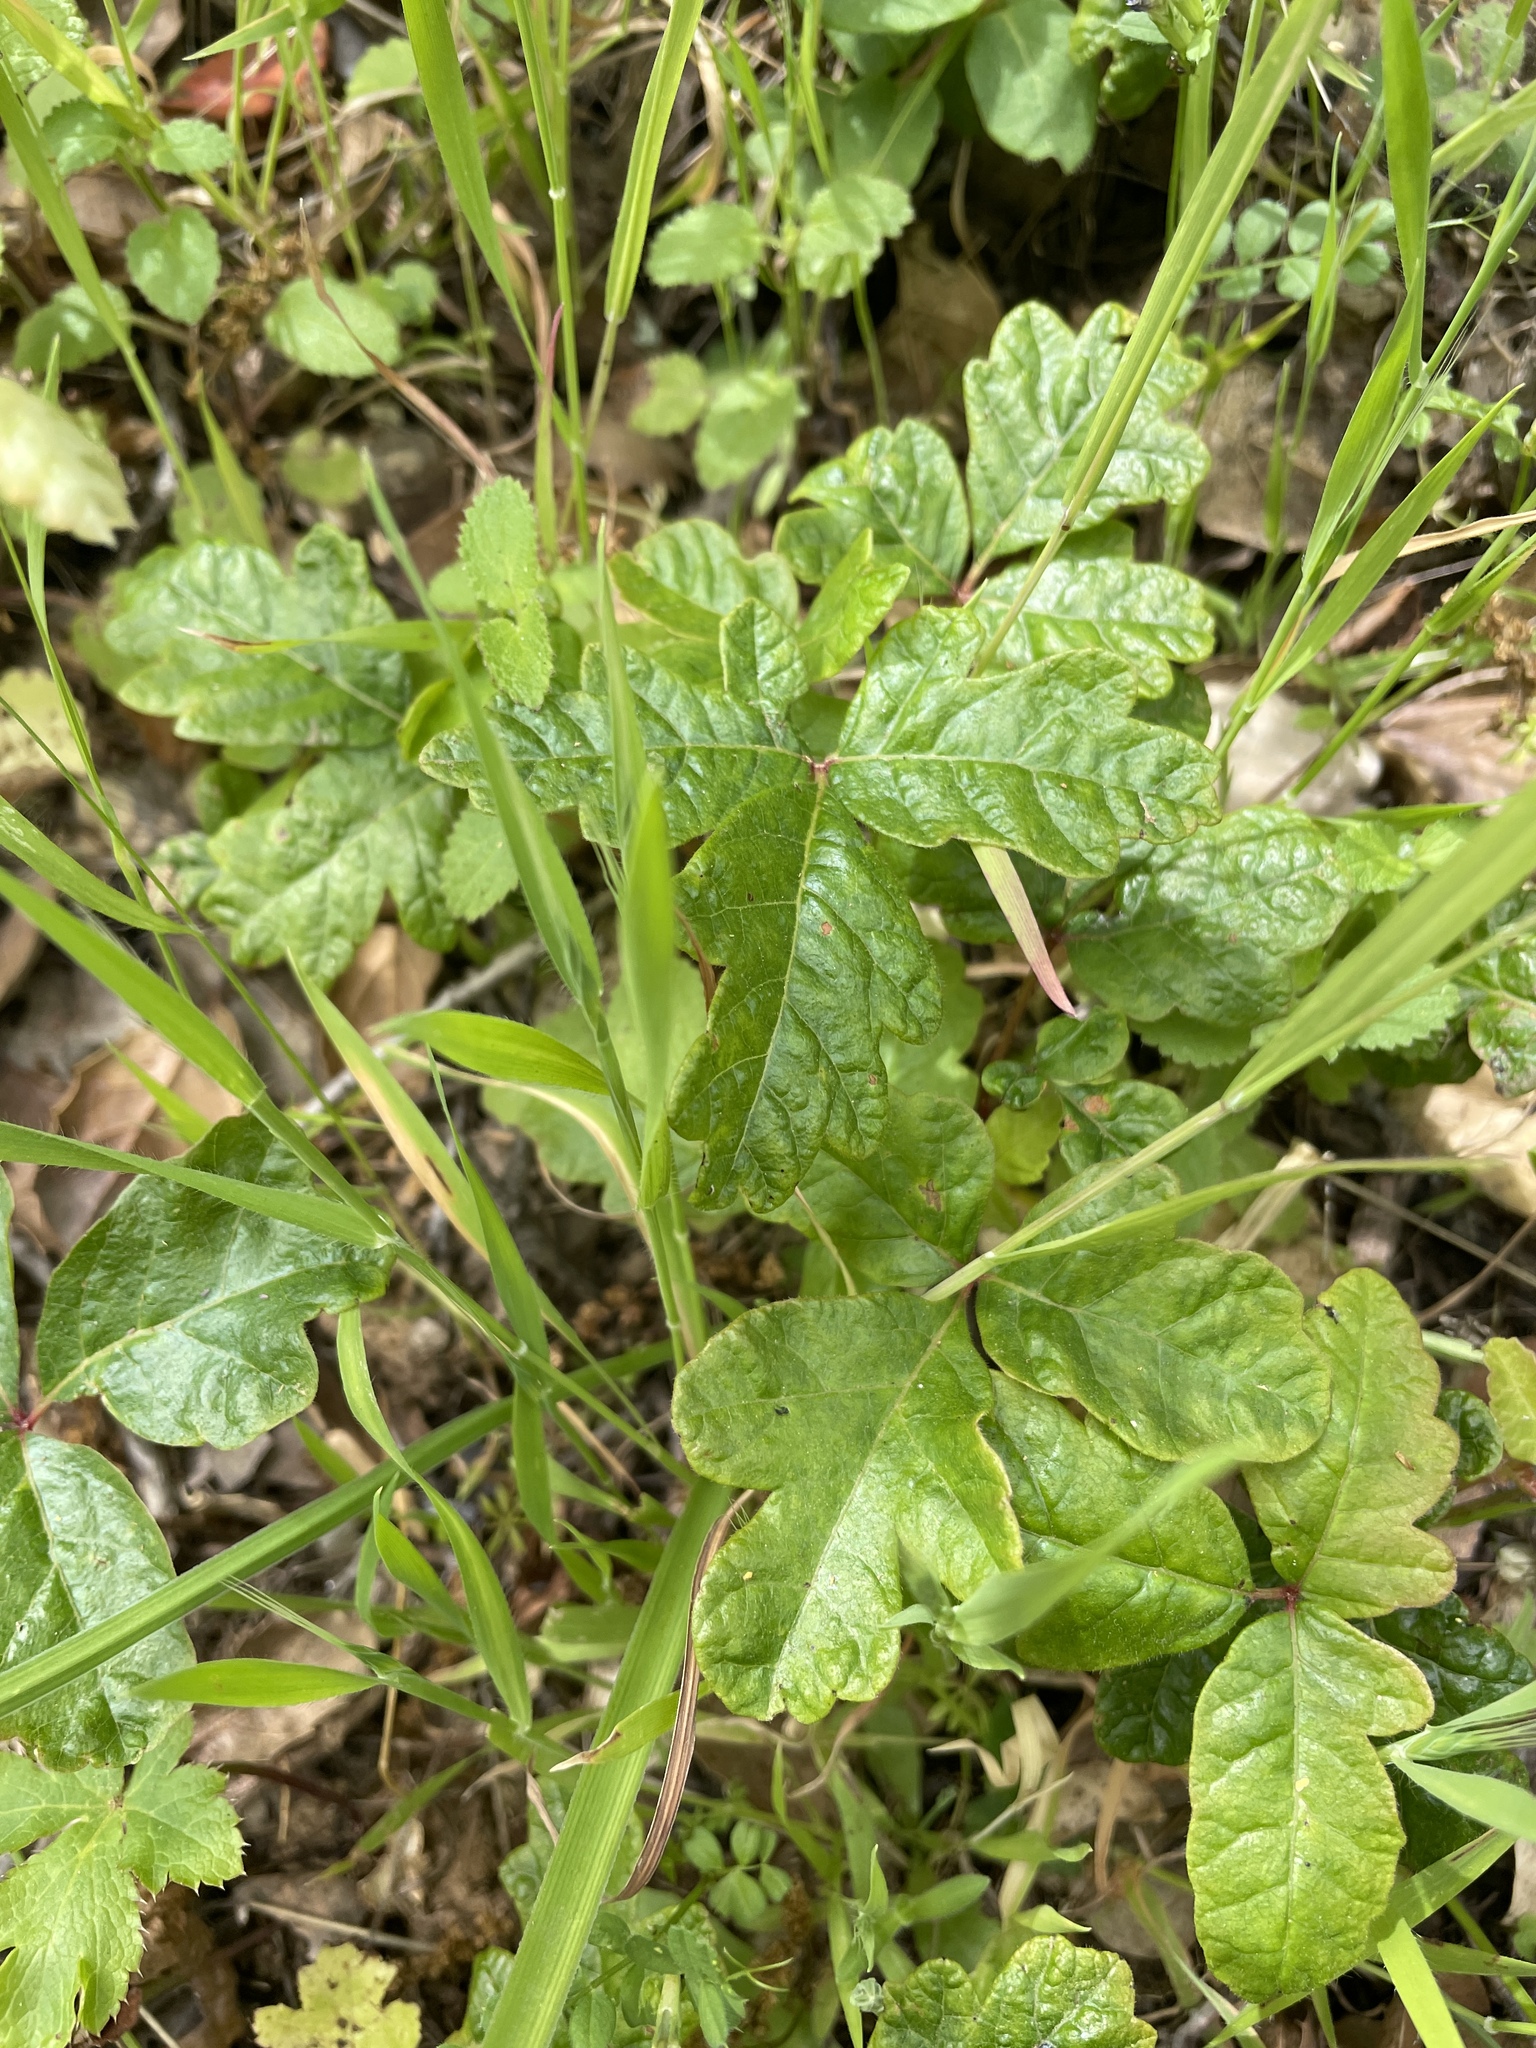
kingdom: Plantae
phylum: Tracheophyta
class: Magnoliopsida
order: Sapindales
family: Anacardiaceae
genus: Toxicodendron
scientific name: Toxicodendron diversilobum
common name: Pacific poison-oak
